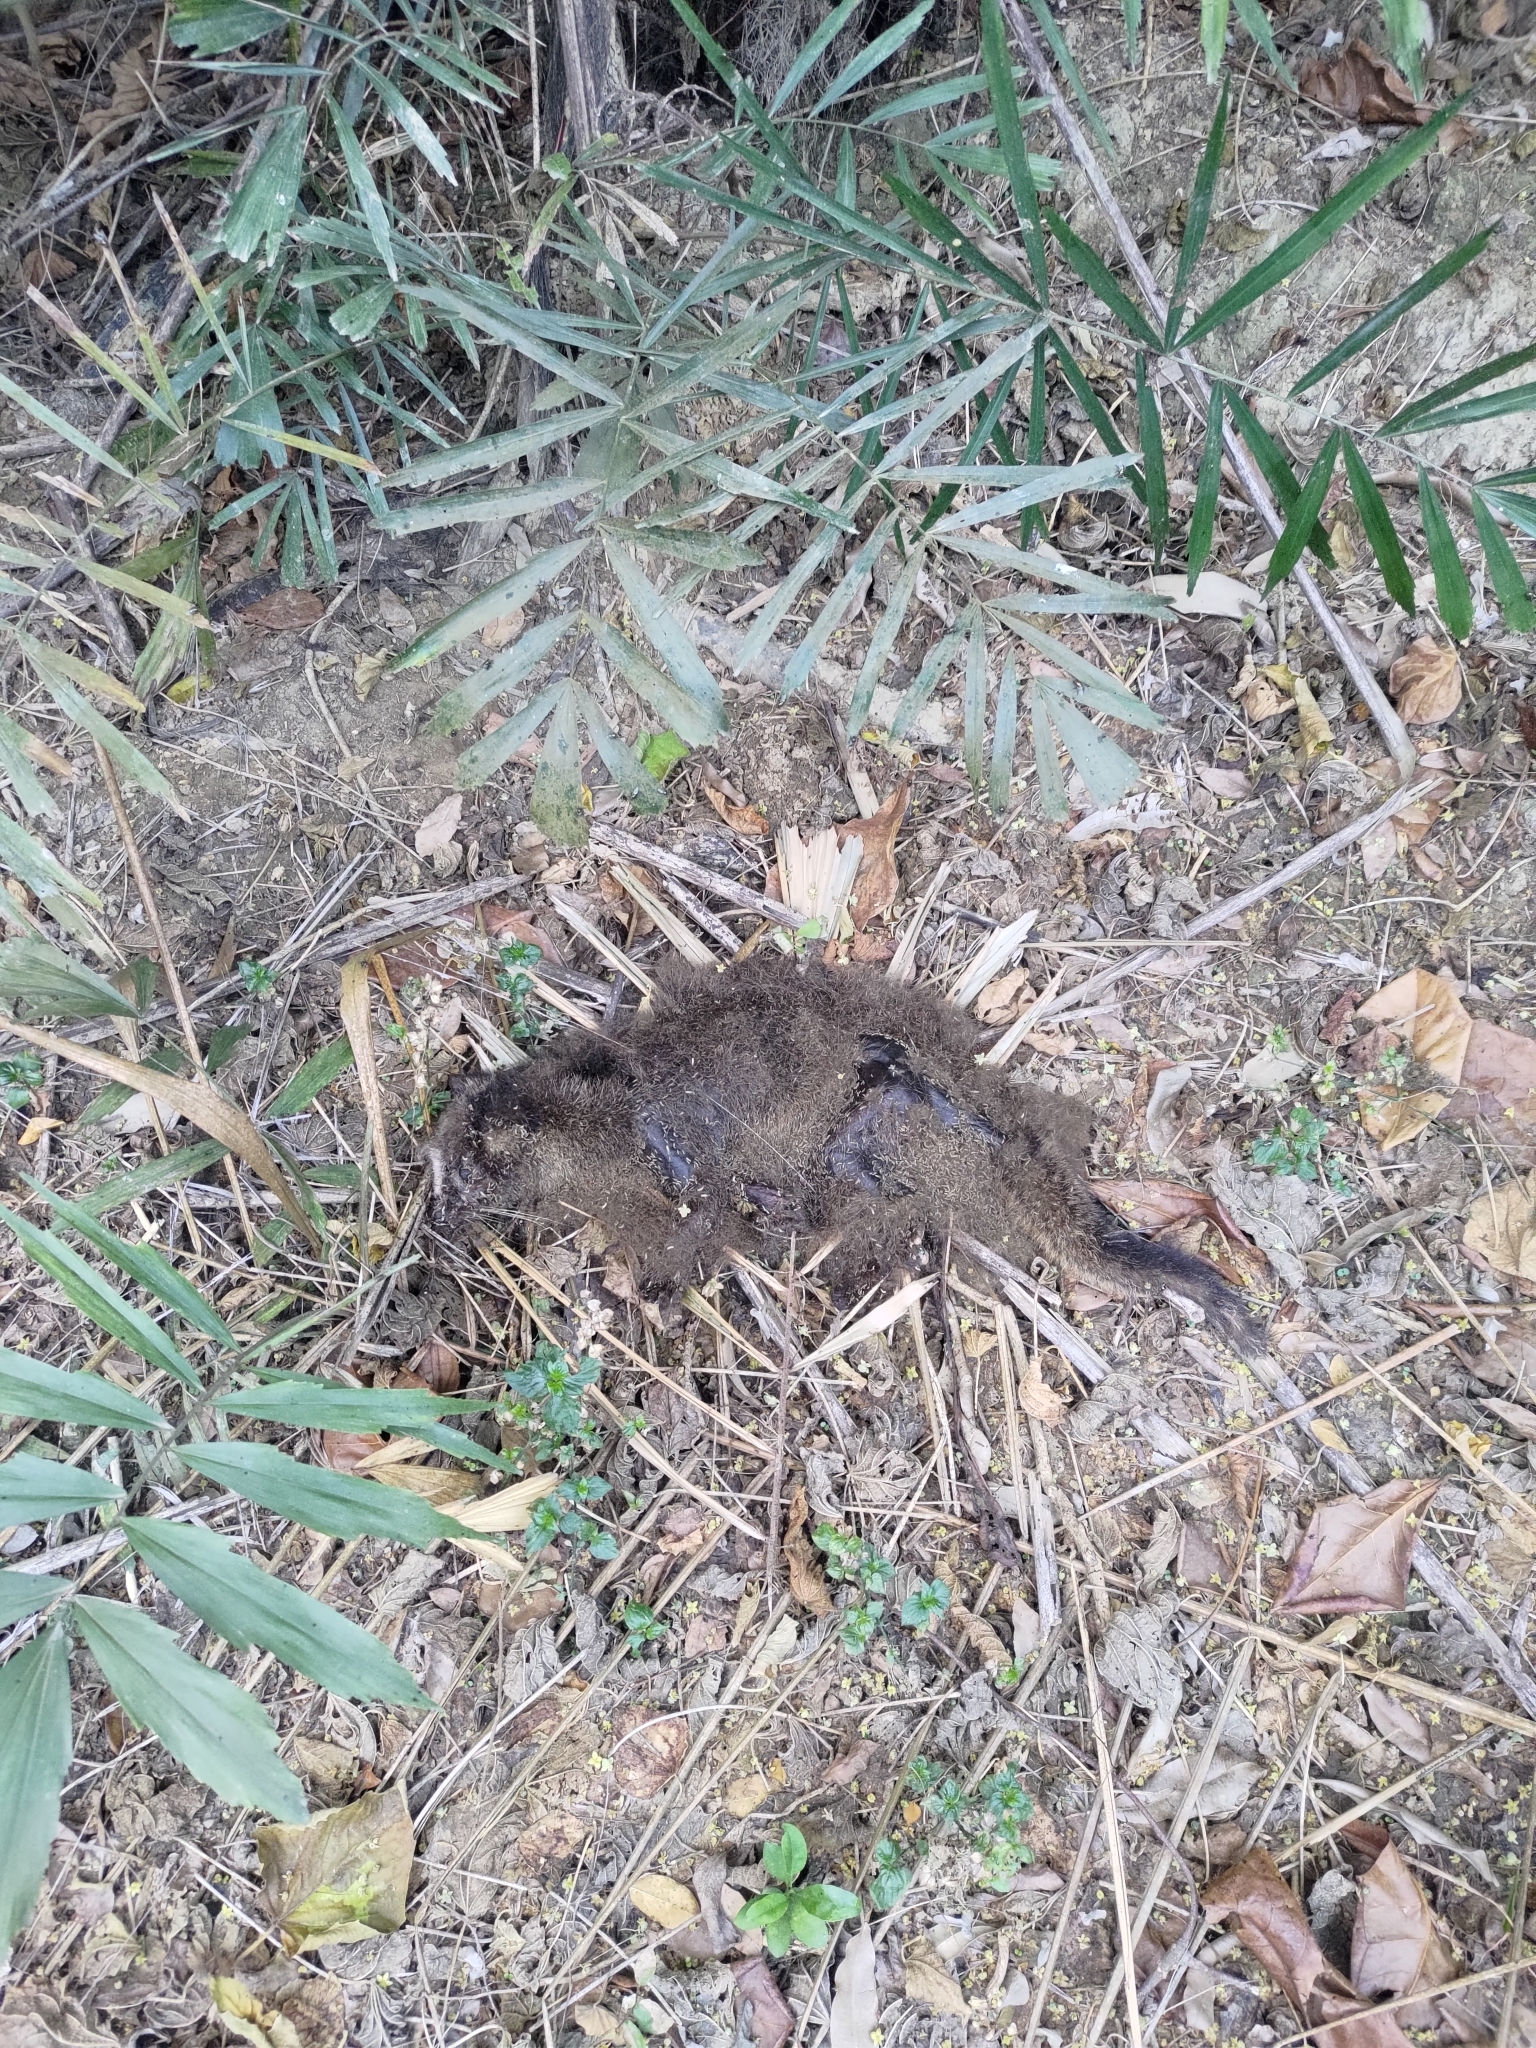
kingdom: Animalia
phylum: Chordata
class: Mammalia
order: Carnivora
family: Viverridae
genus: Paguma
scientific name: Paguma larvata
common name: Masked palm civet
